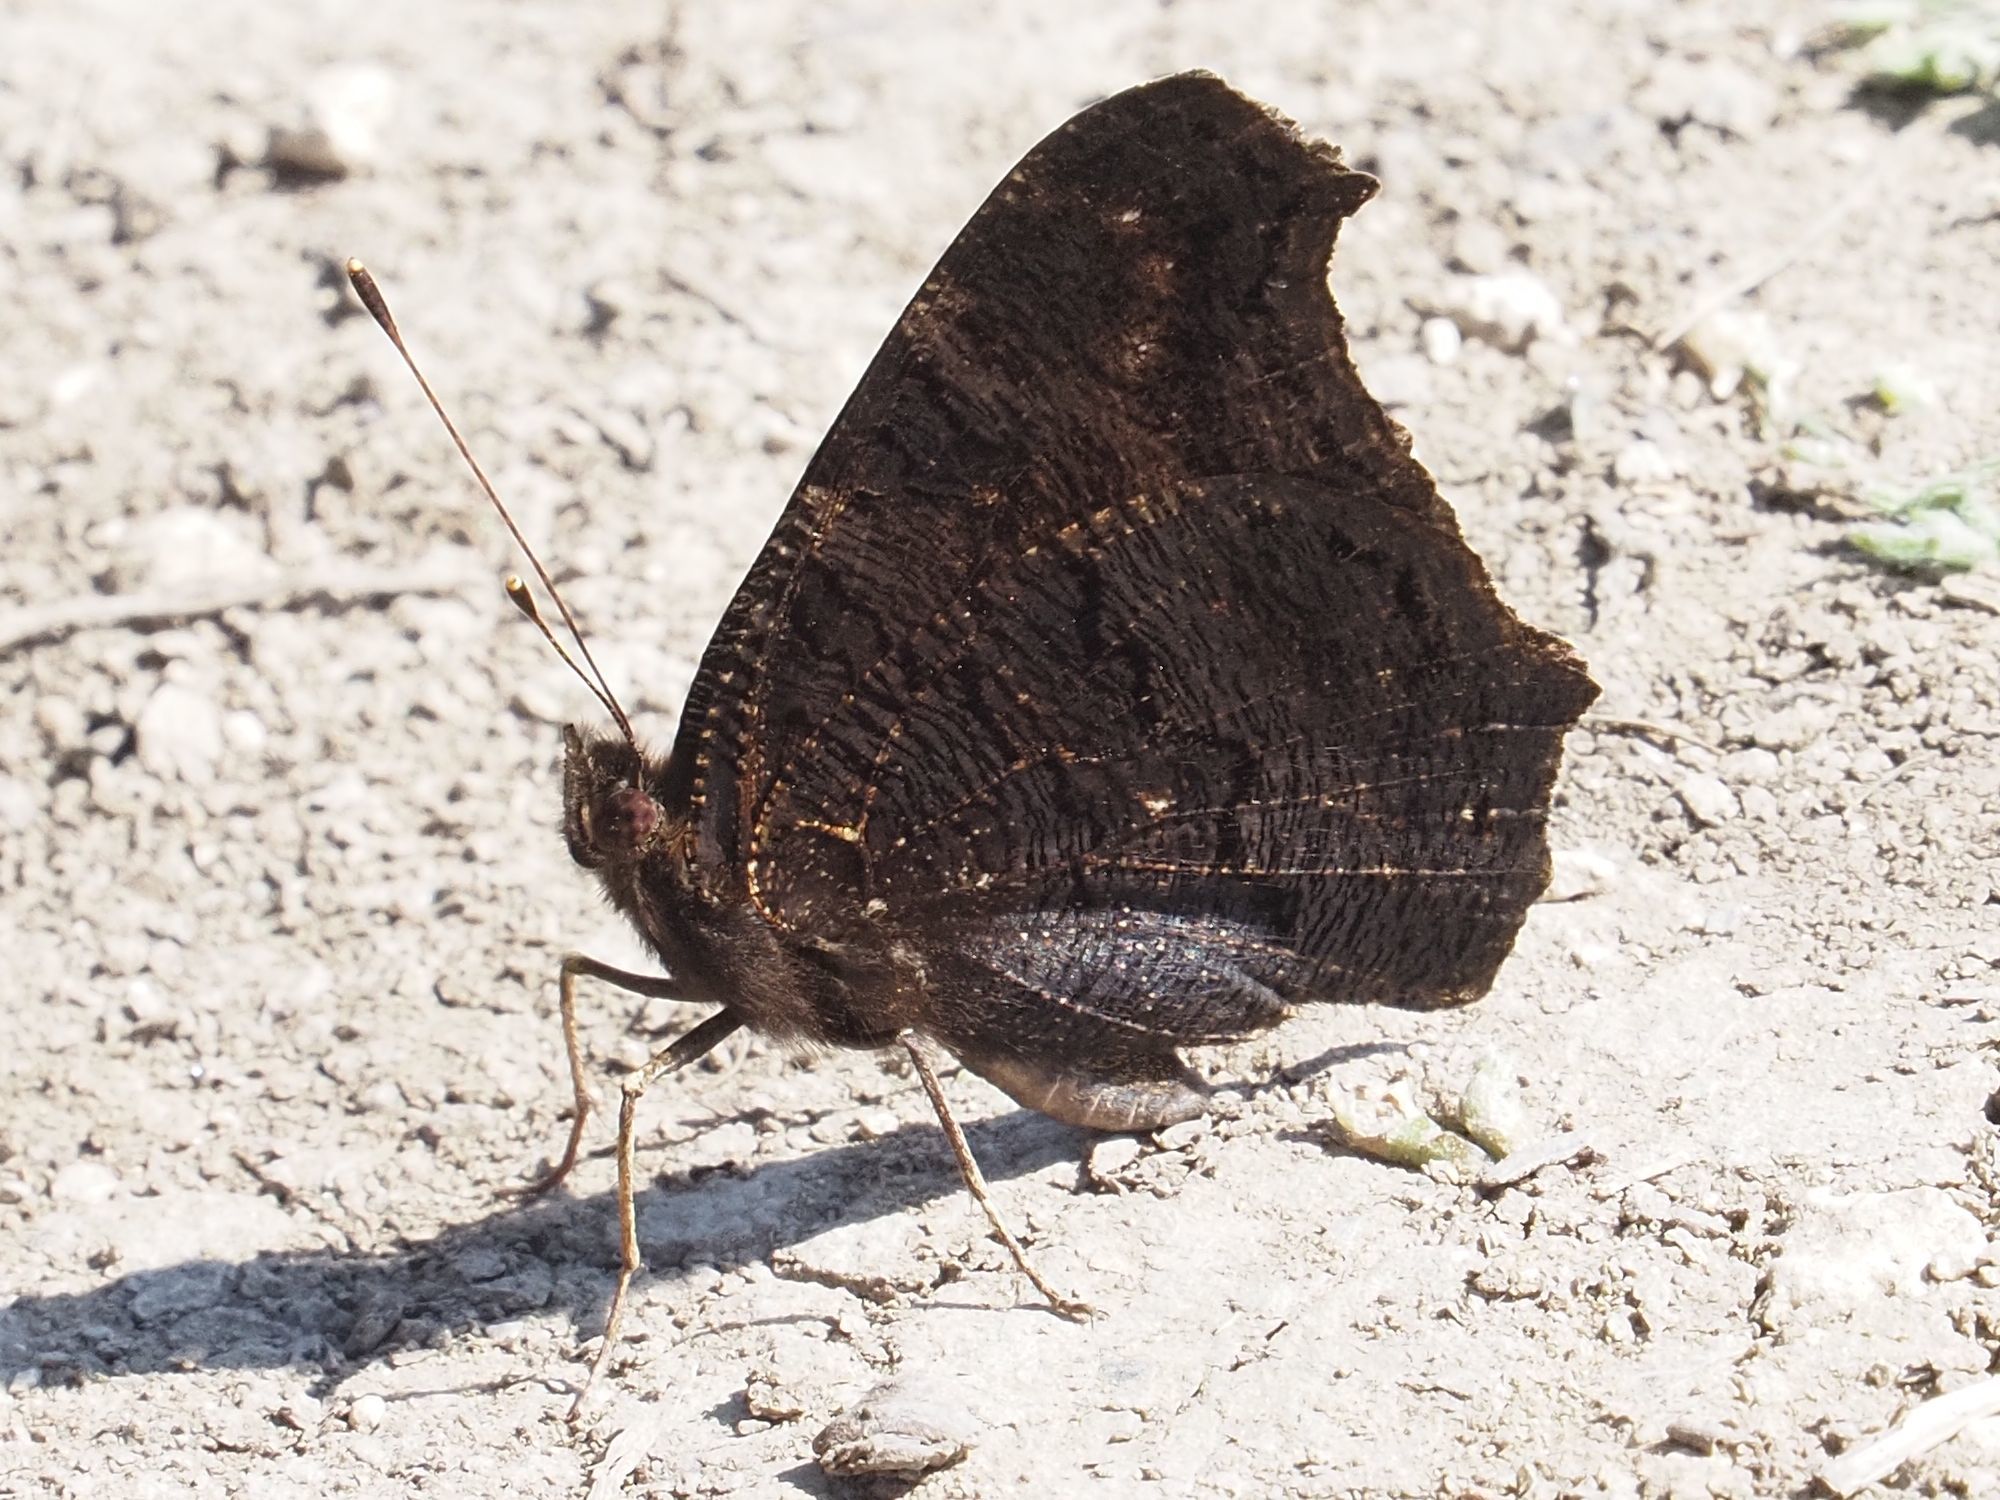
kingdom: Animalia
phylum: Arthropoda
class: Insecta
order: Lepidoptera
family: Nymphalidae
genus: Aglais
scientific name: Aglais io
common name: Peacock
